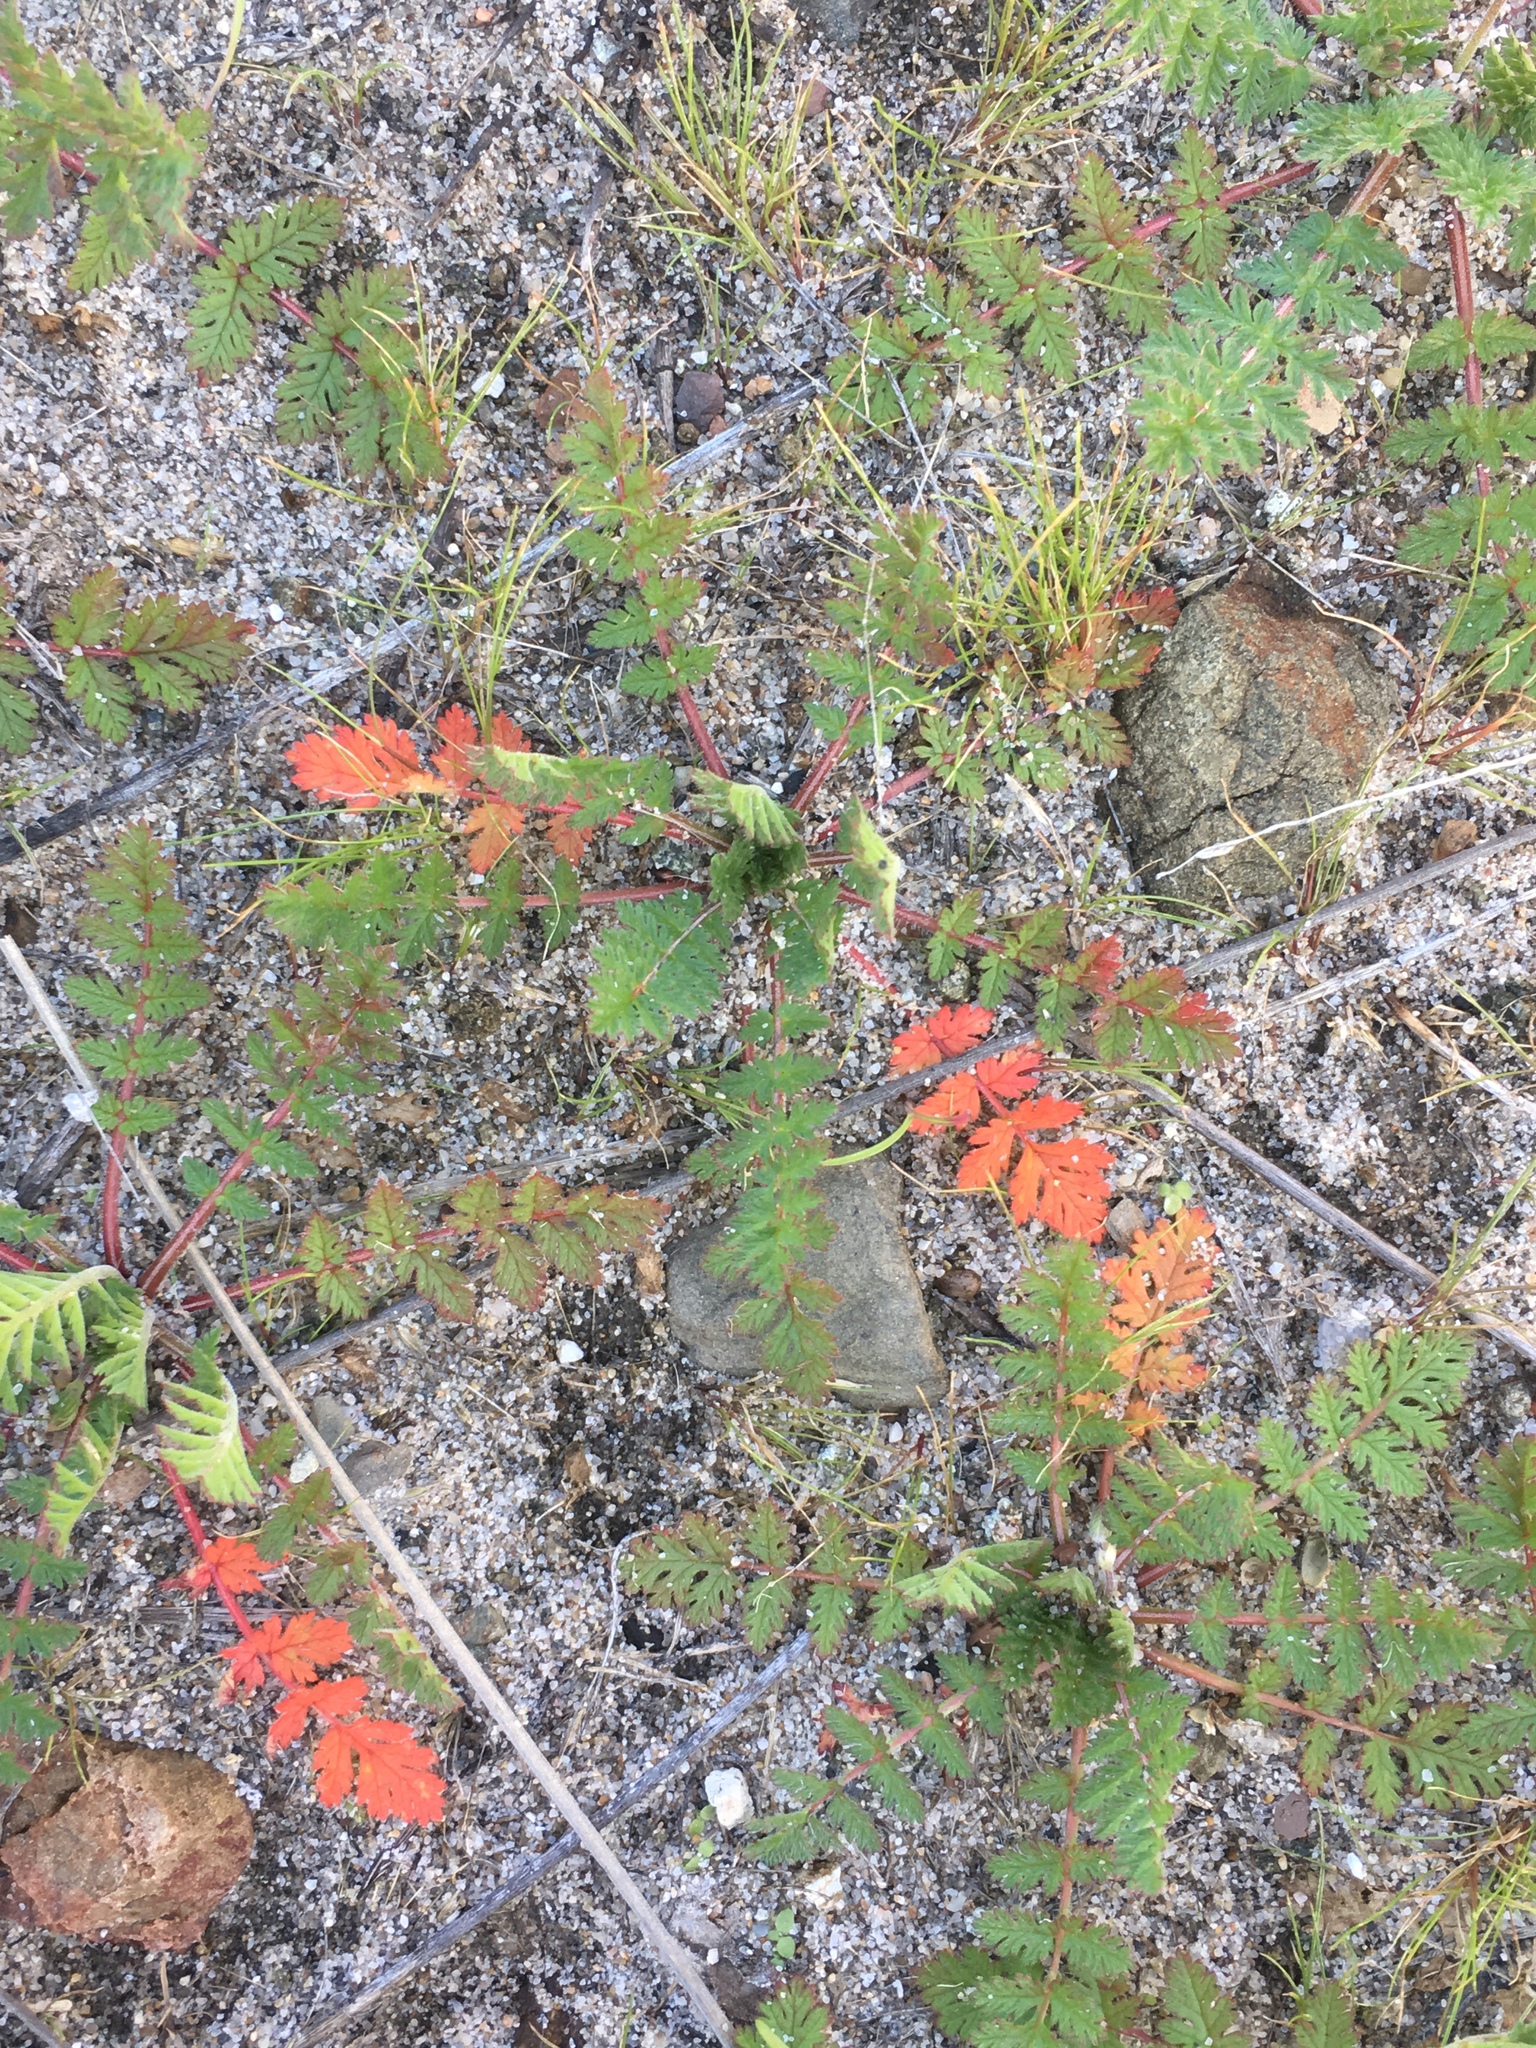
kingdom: Plantae
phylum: Tracheophyta
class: Magnoliopsida
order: Geraniales
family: Geraniaceae
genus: Erodium
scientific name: Erodium cicutarium
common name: Common stork's-bill
